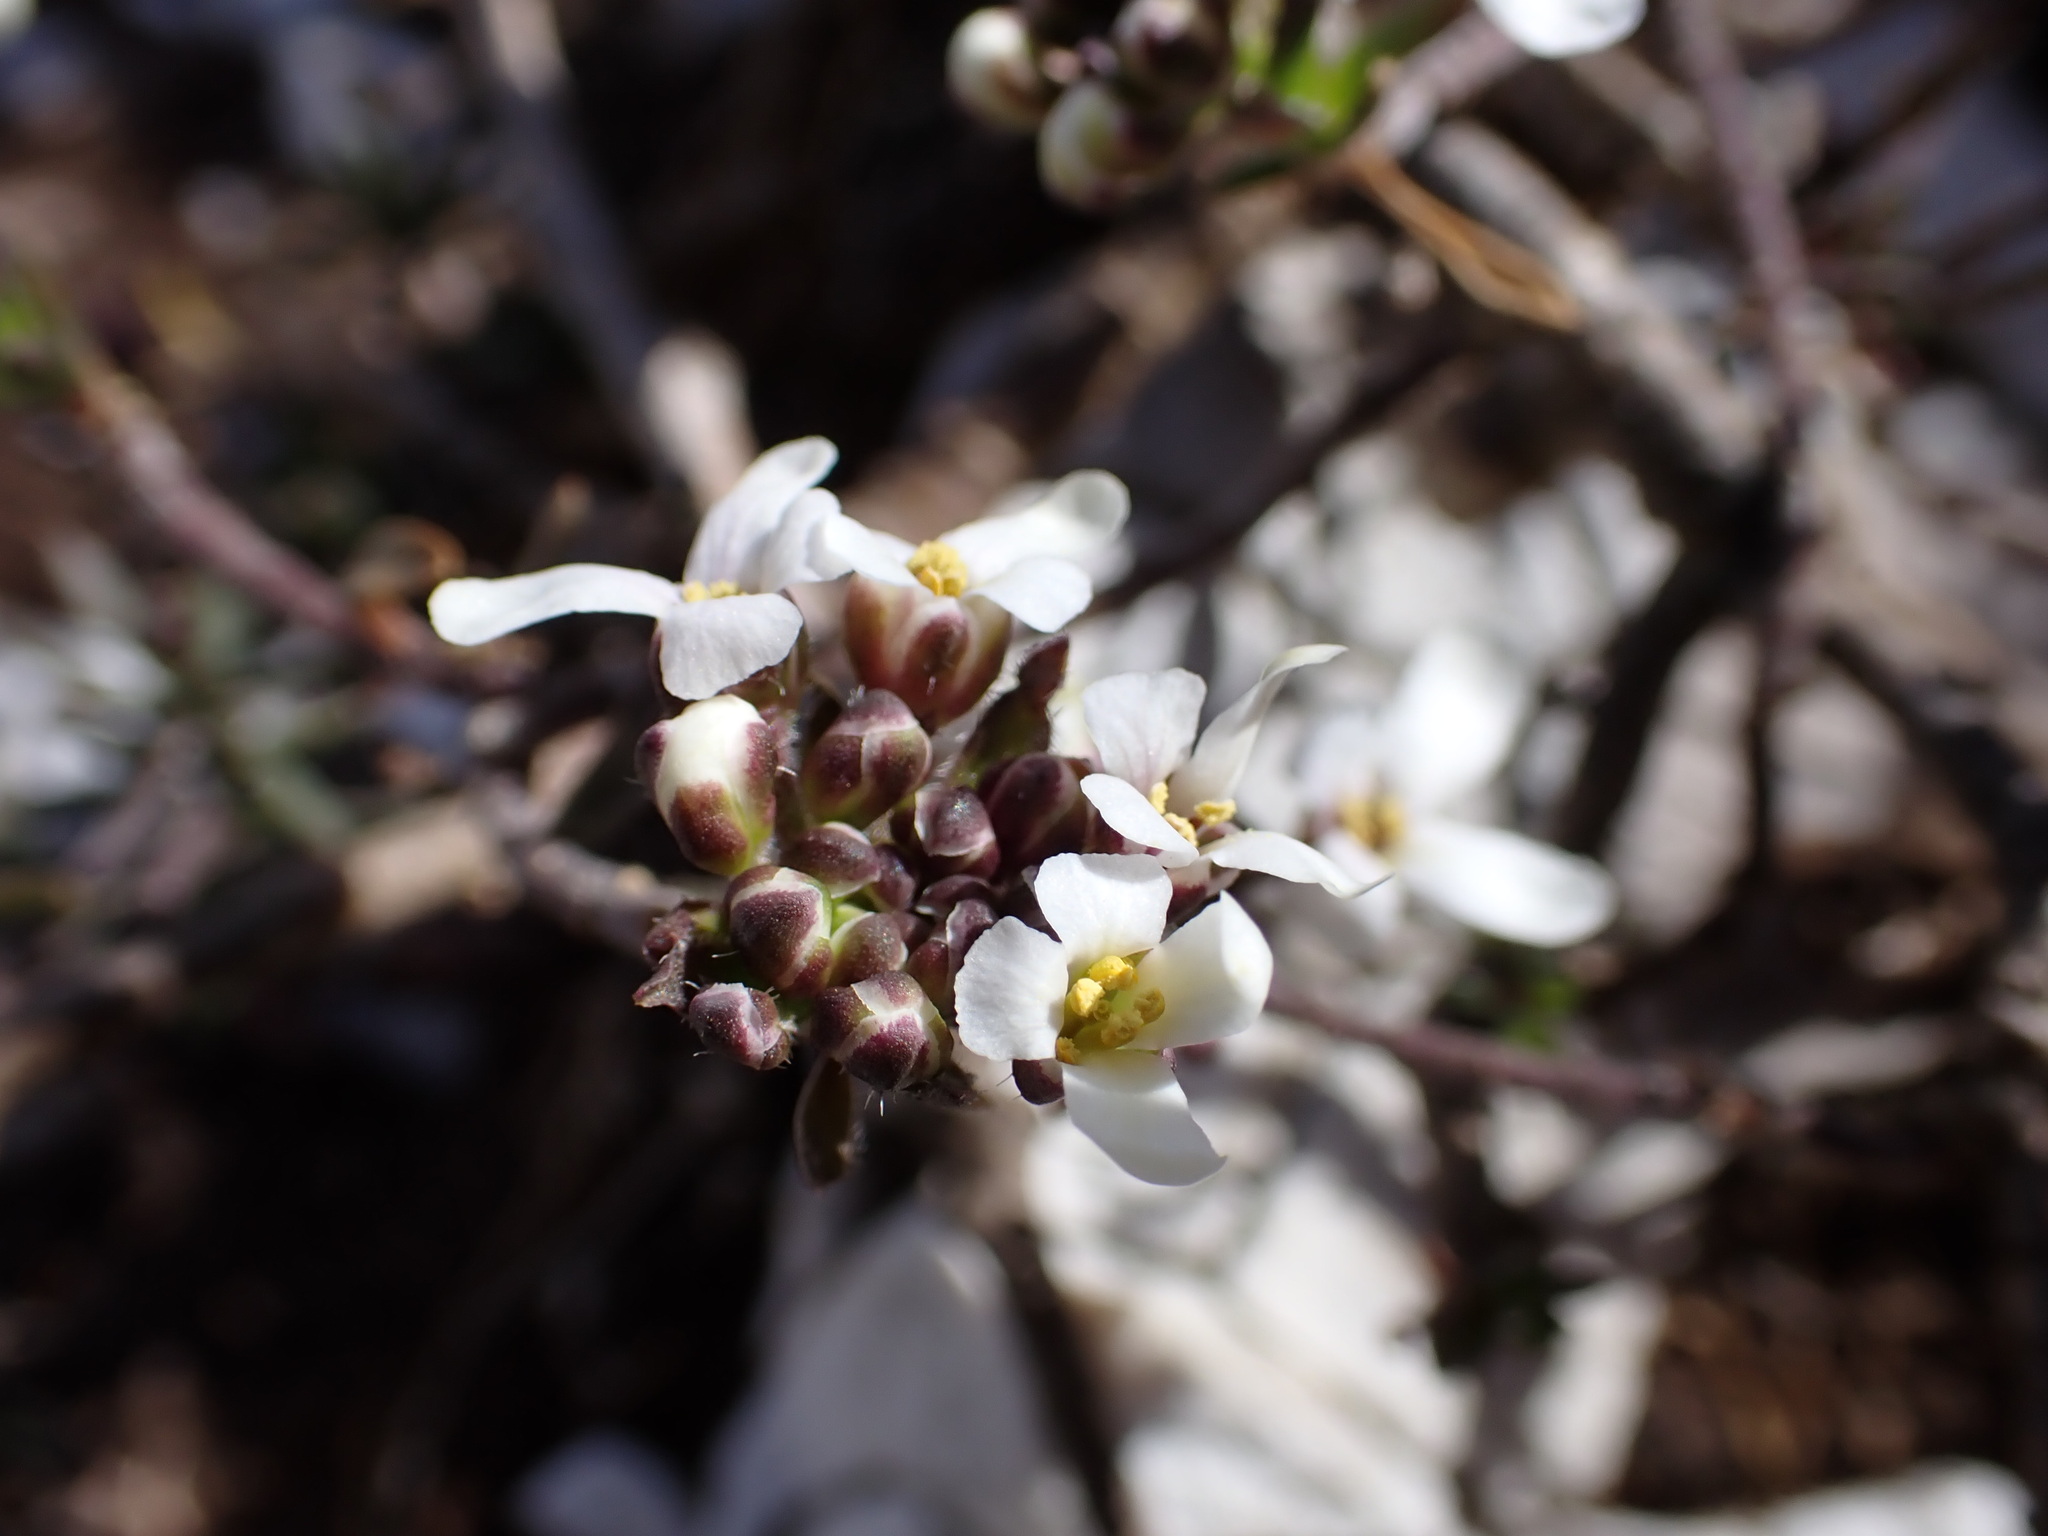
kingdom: Plantae
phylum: Tracheophyta
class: Magnoliopsida
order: Brassicales
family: Brassicaceae
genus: Iberis
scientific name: Iberis saxatilis
